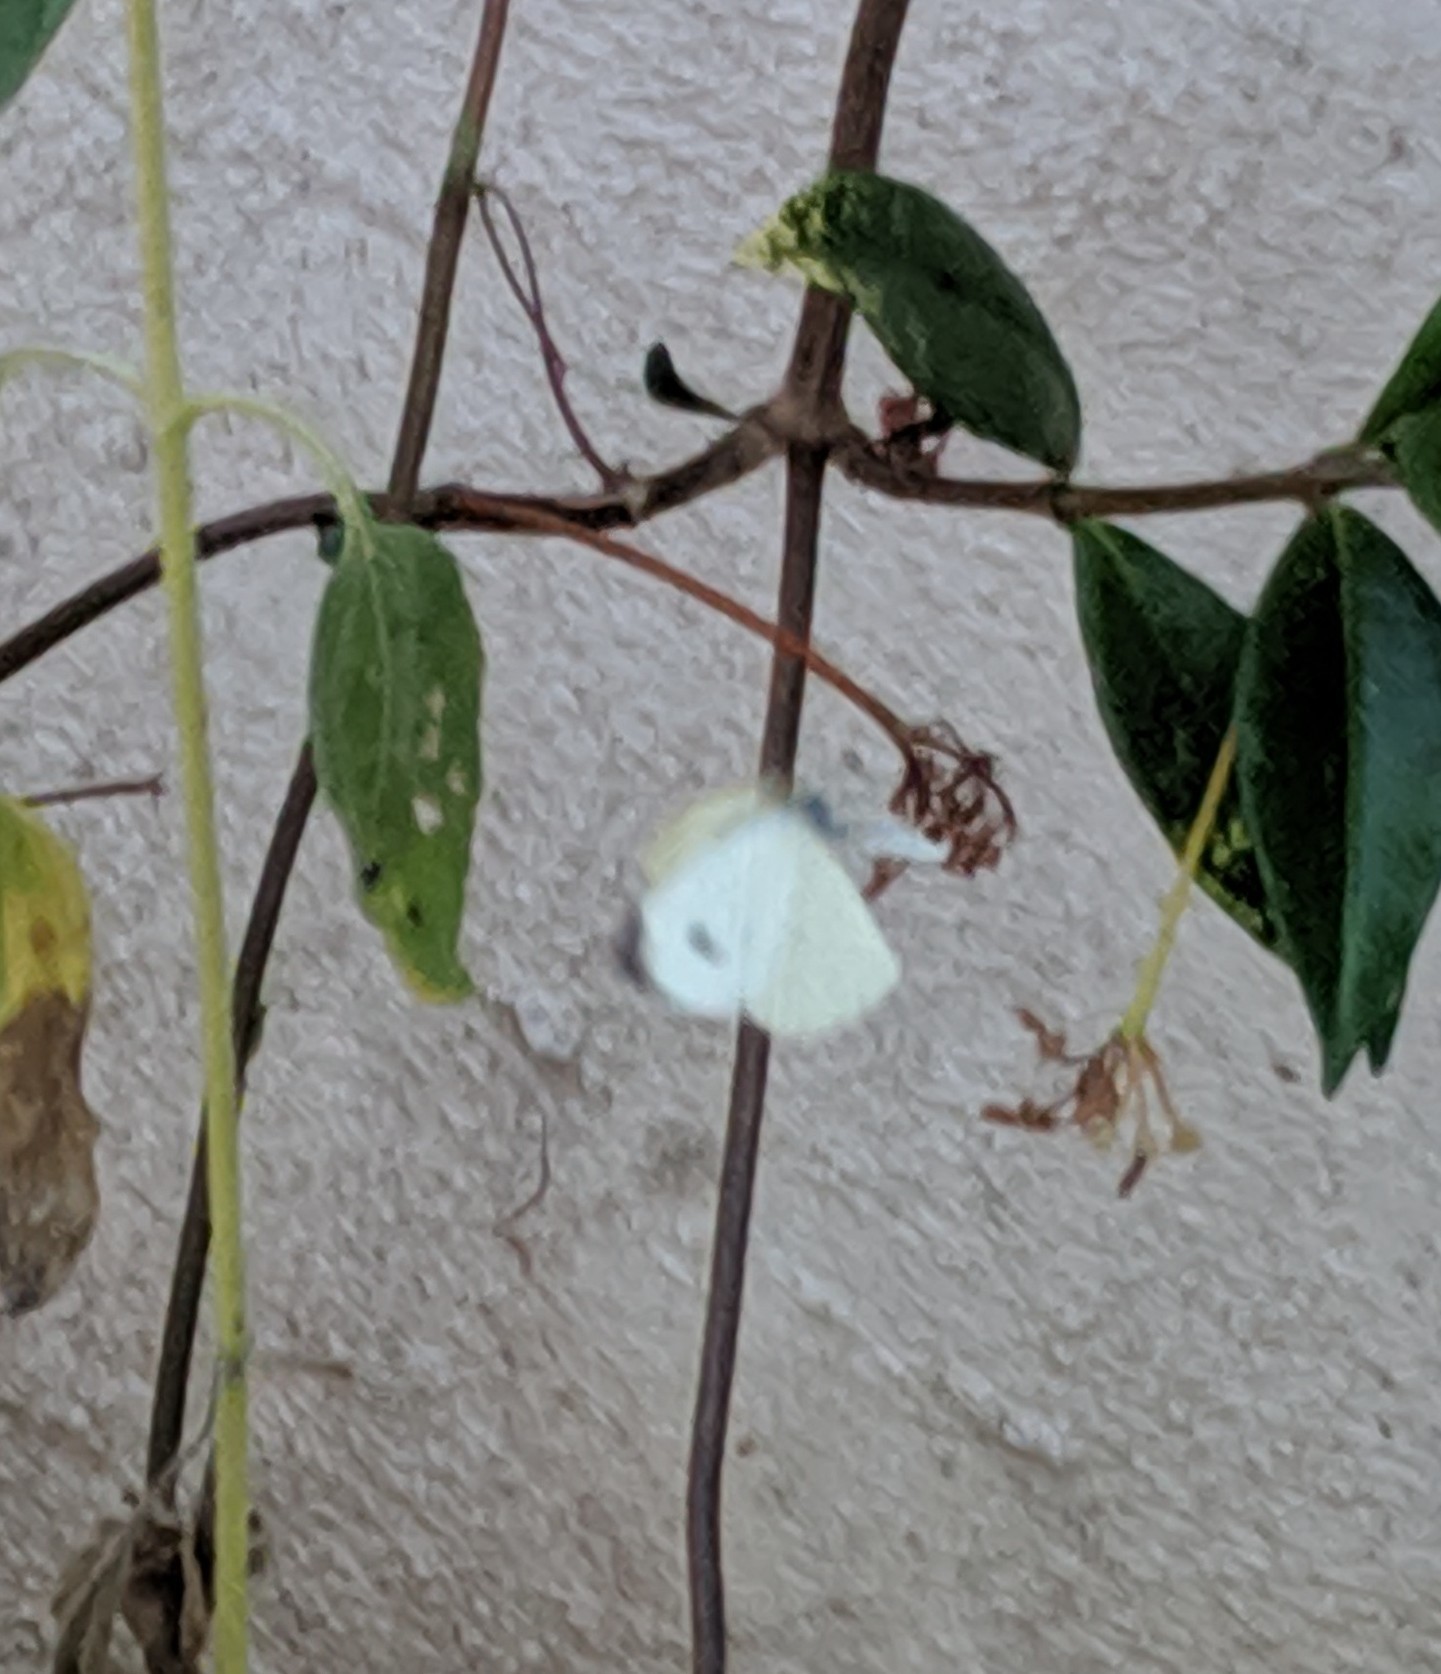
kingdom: Animalia
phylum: Arthropoda
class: Insecta
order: Lepidoptera
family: Pieridae
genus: Pieris
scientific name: Pieris rapae
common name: Small white
